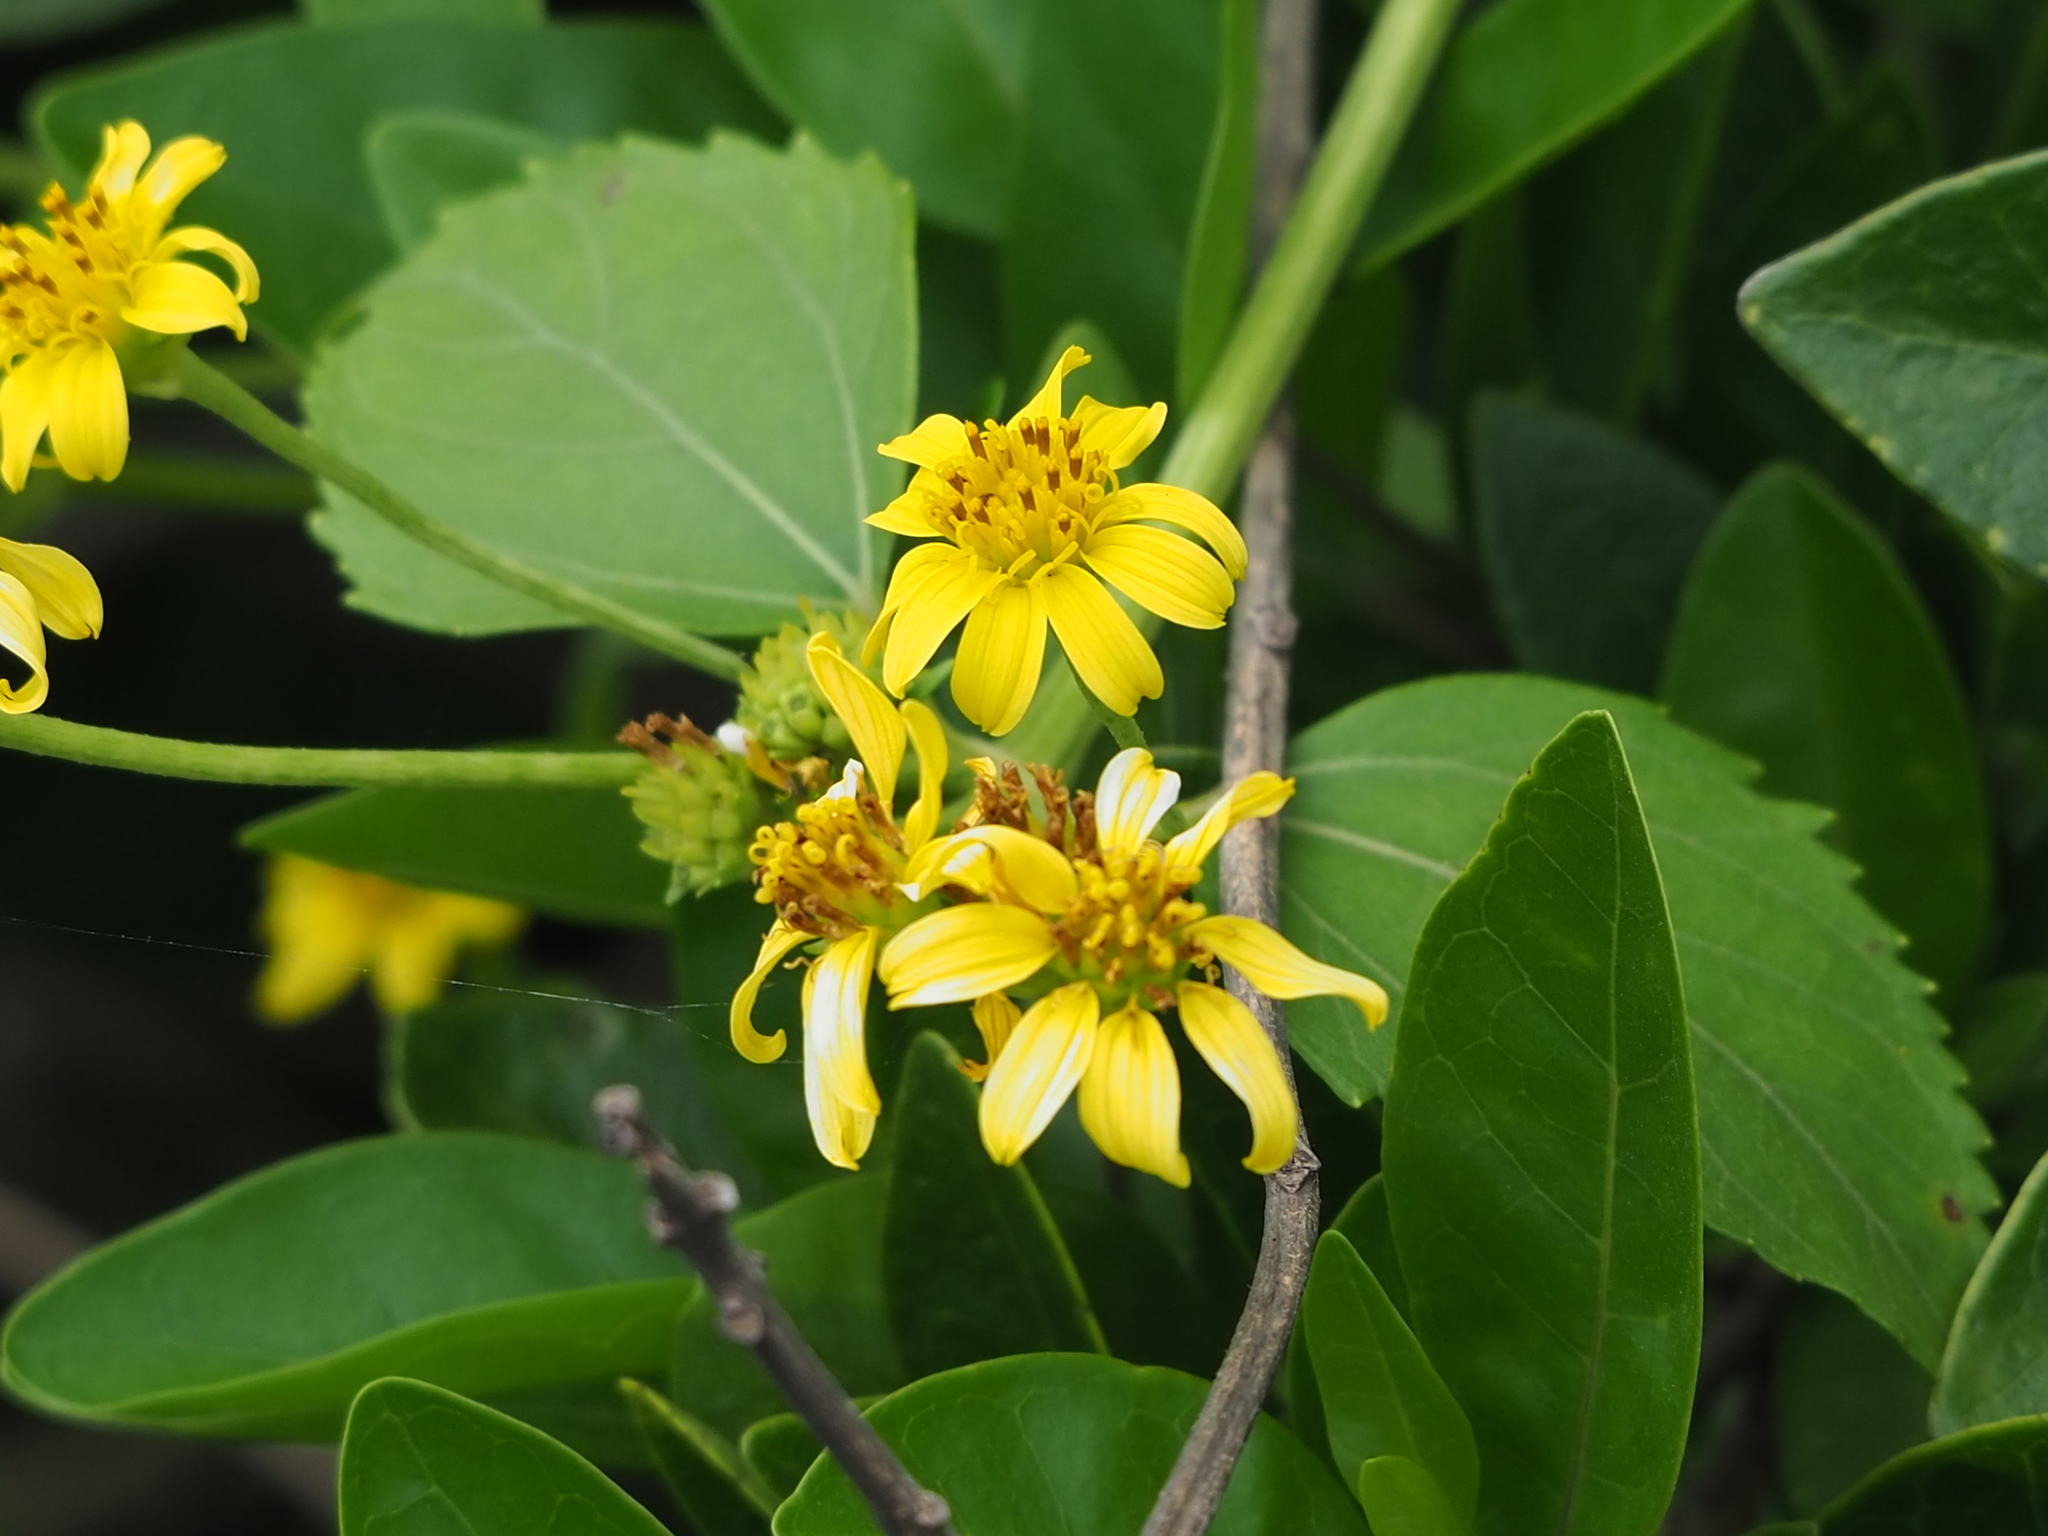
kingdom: Plantae
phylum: Tracheophyta
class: Magnoliopsida
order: Asterales
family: Asteraceae
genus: Wollastonia
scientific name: Wollastonia biflora
